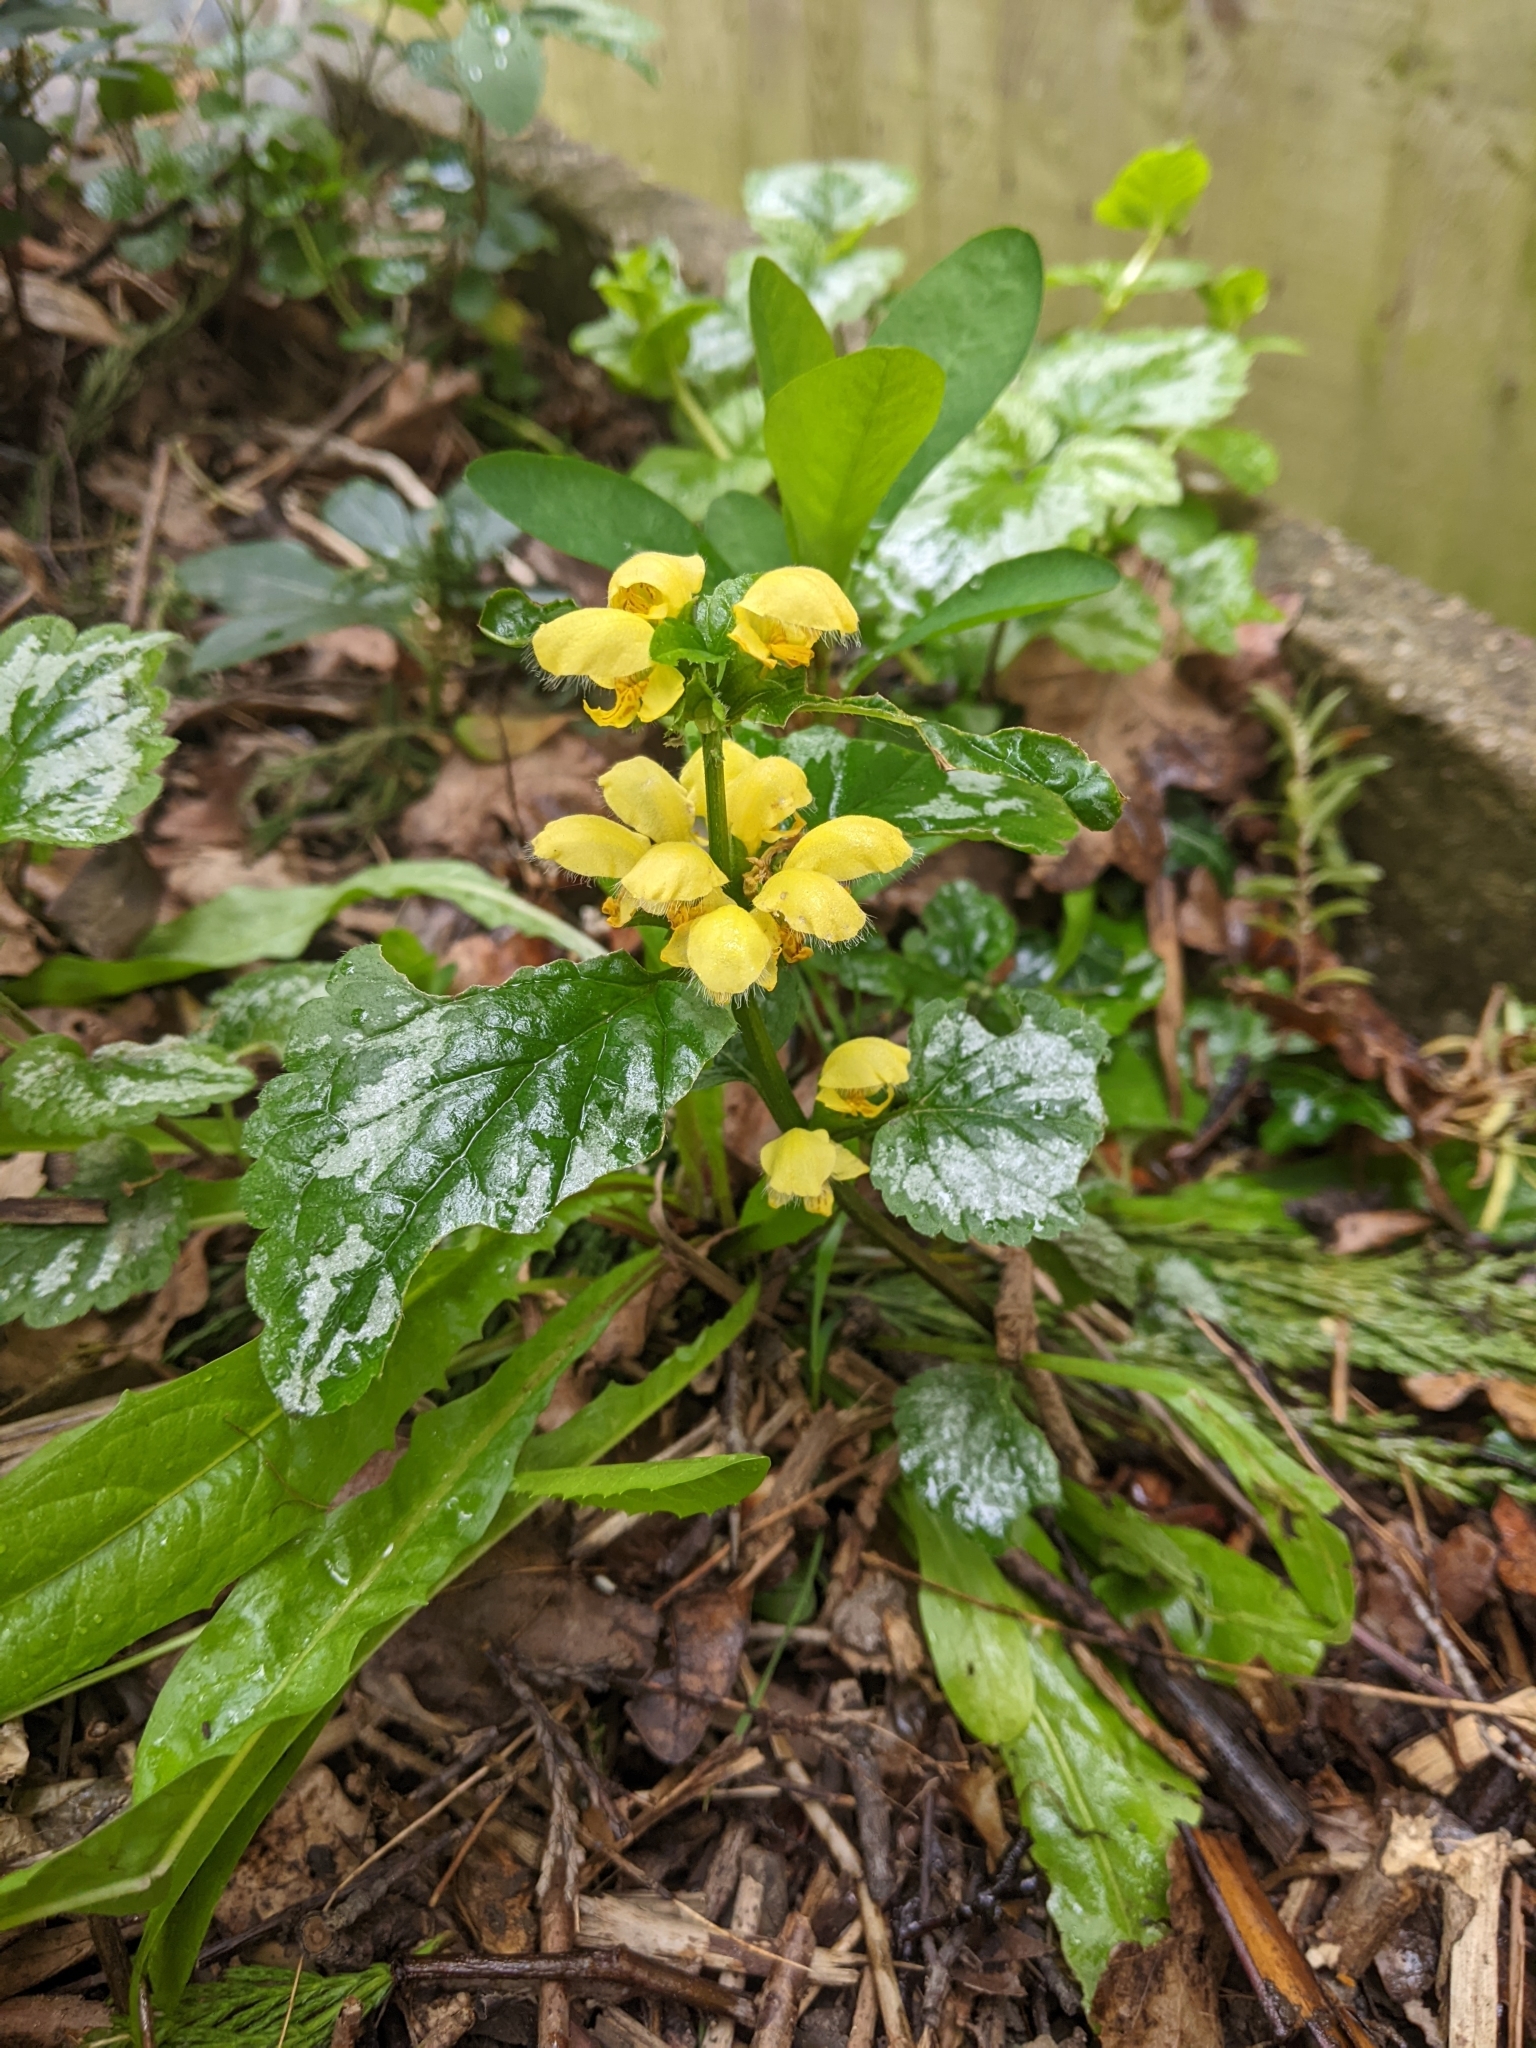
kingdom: Plantae
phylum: Tracheophyta
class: Magnoliopsida
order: Lamiales
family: Lamiaceae
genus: Lamium
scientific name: Lamium galeobdolon
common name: Yellow archangel
